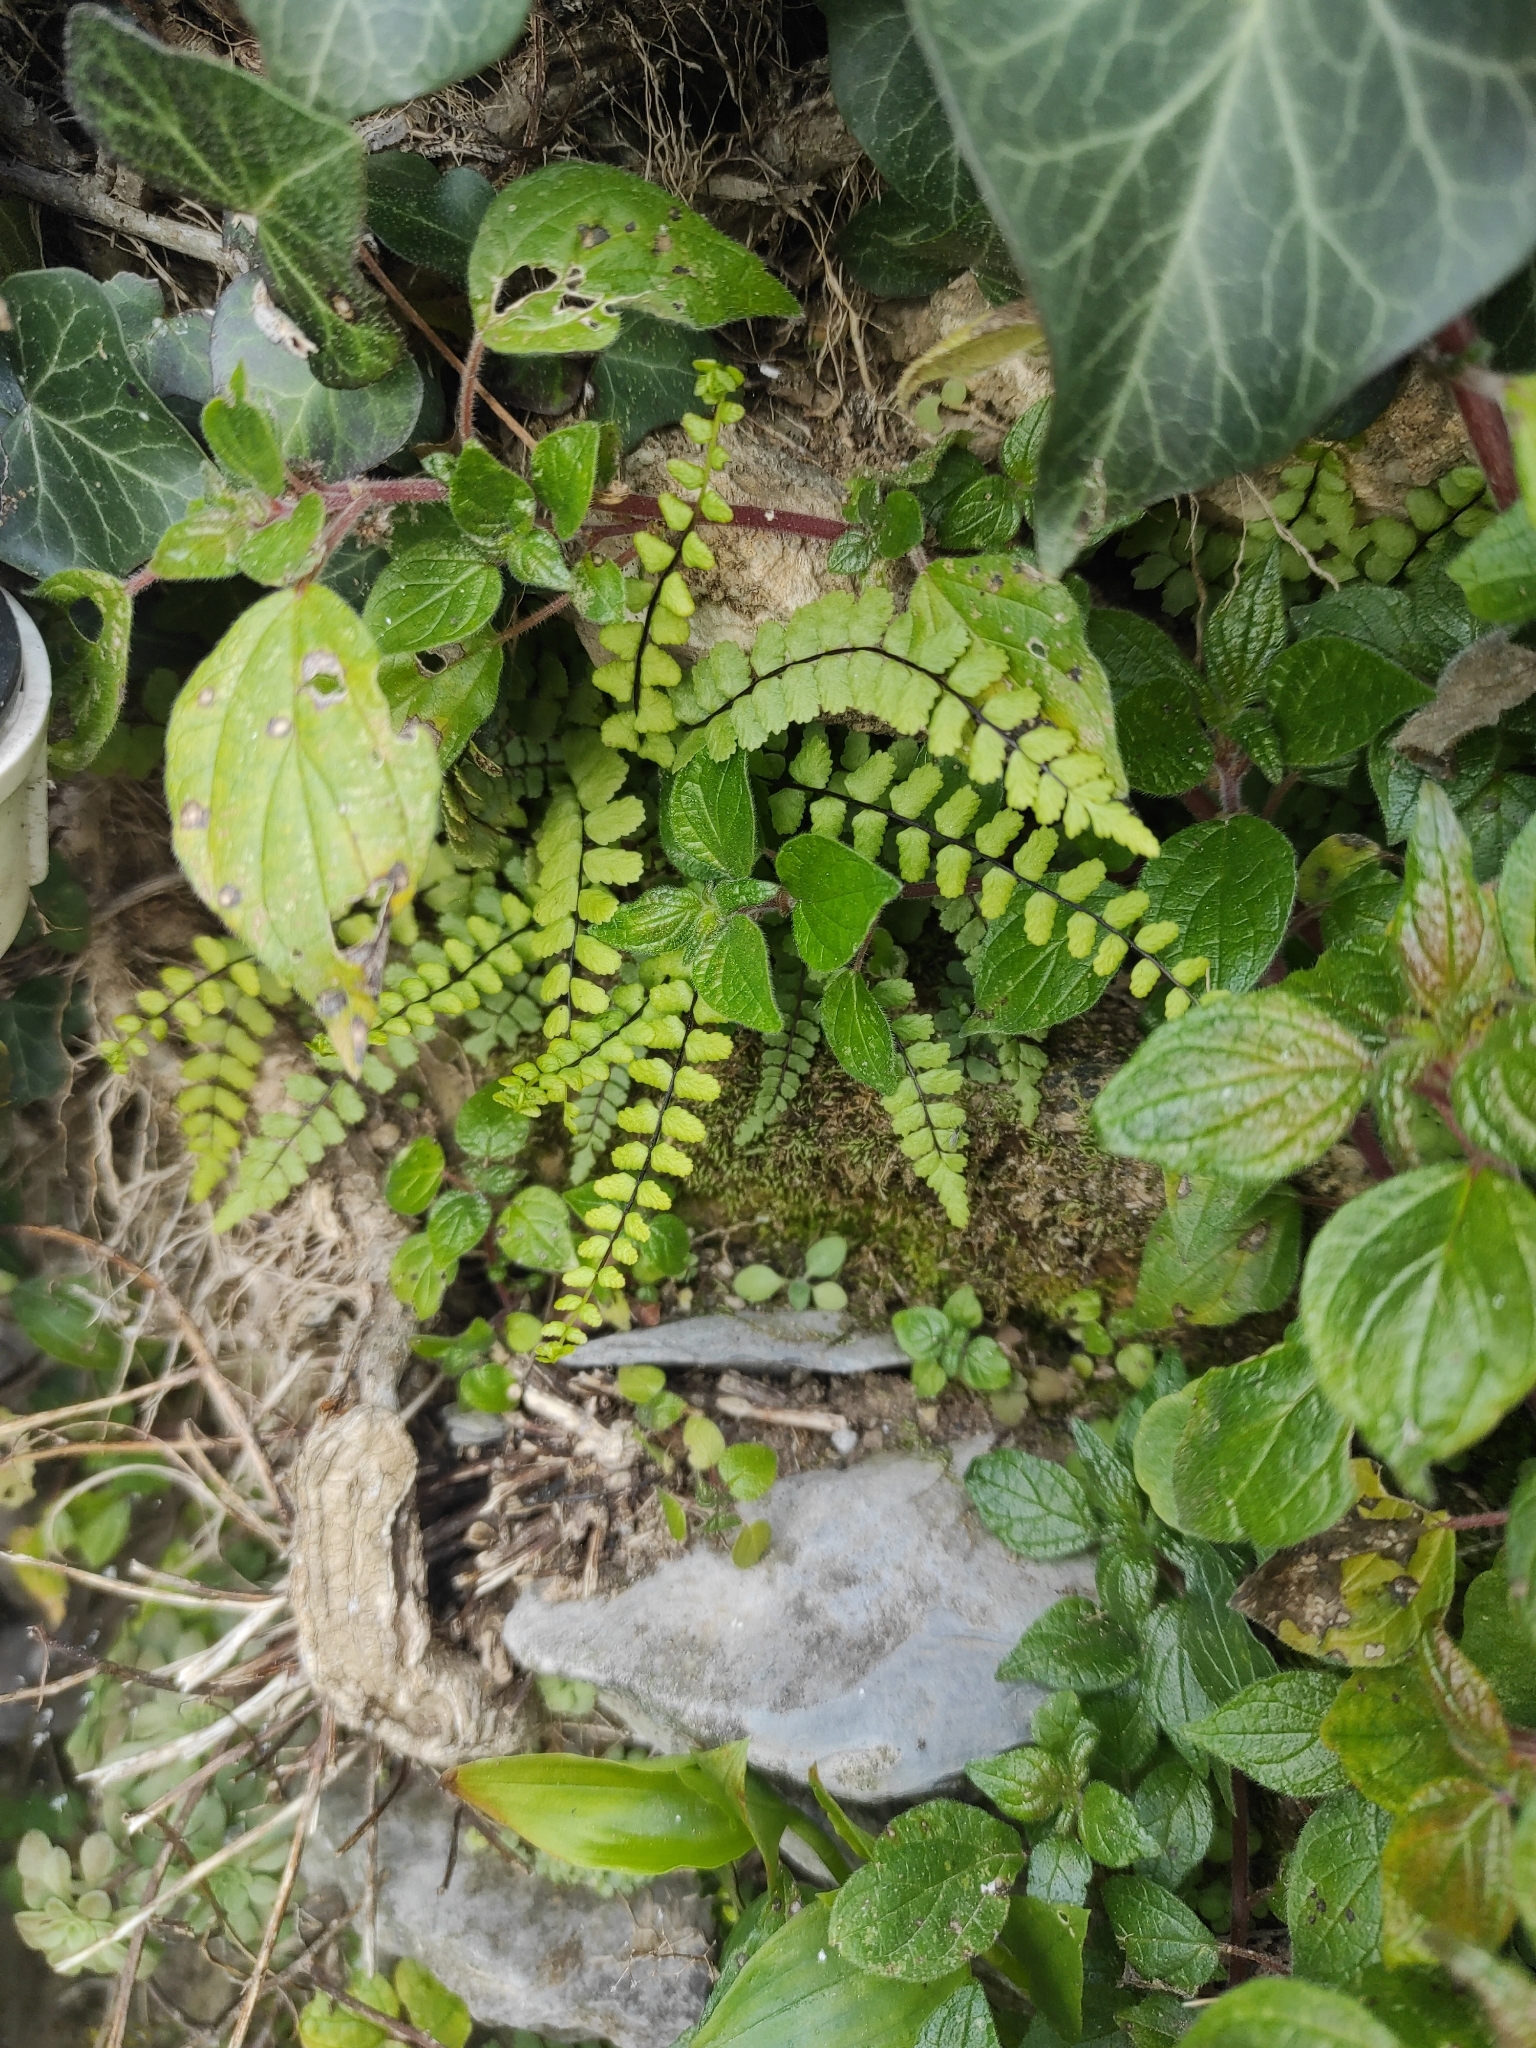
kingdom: Plantae
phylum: Tracheophyta
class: Polypodiopsida
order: Polypodiales
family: Aspleniaceae
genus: Asplenium
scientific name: Asplenium trichomanes
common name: Maidenhair spleenwort
